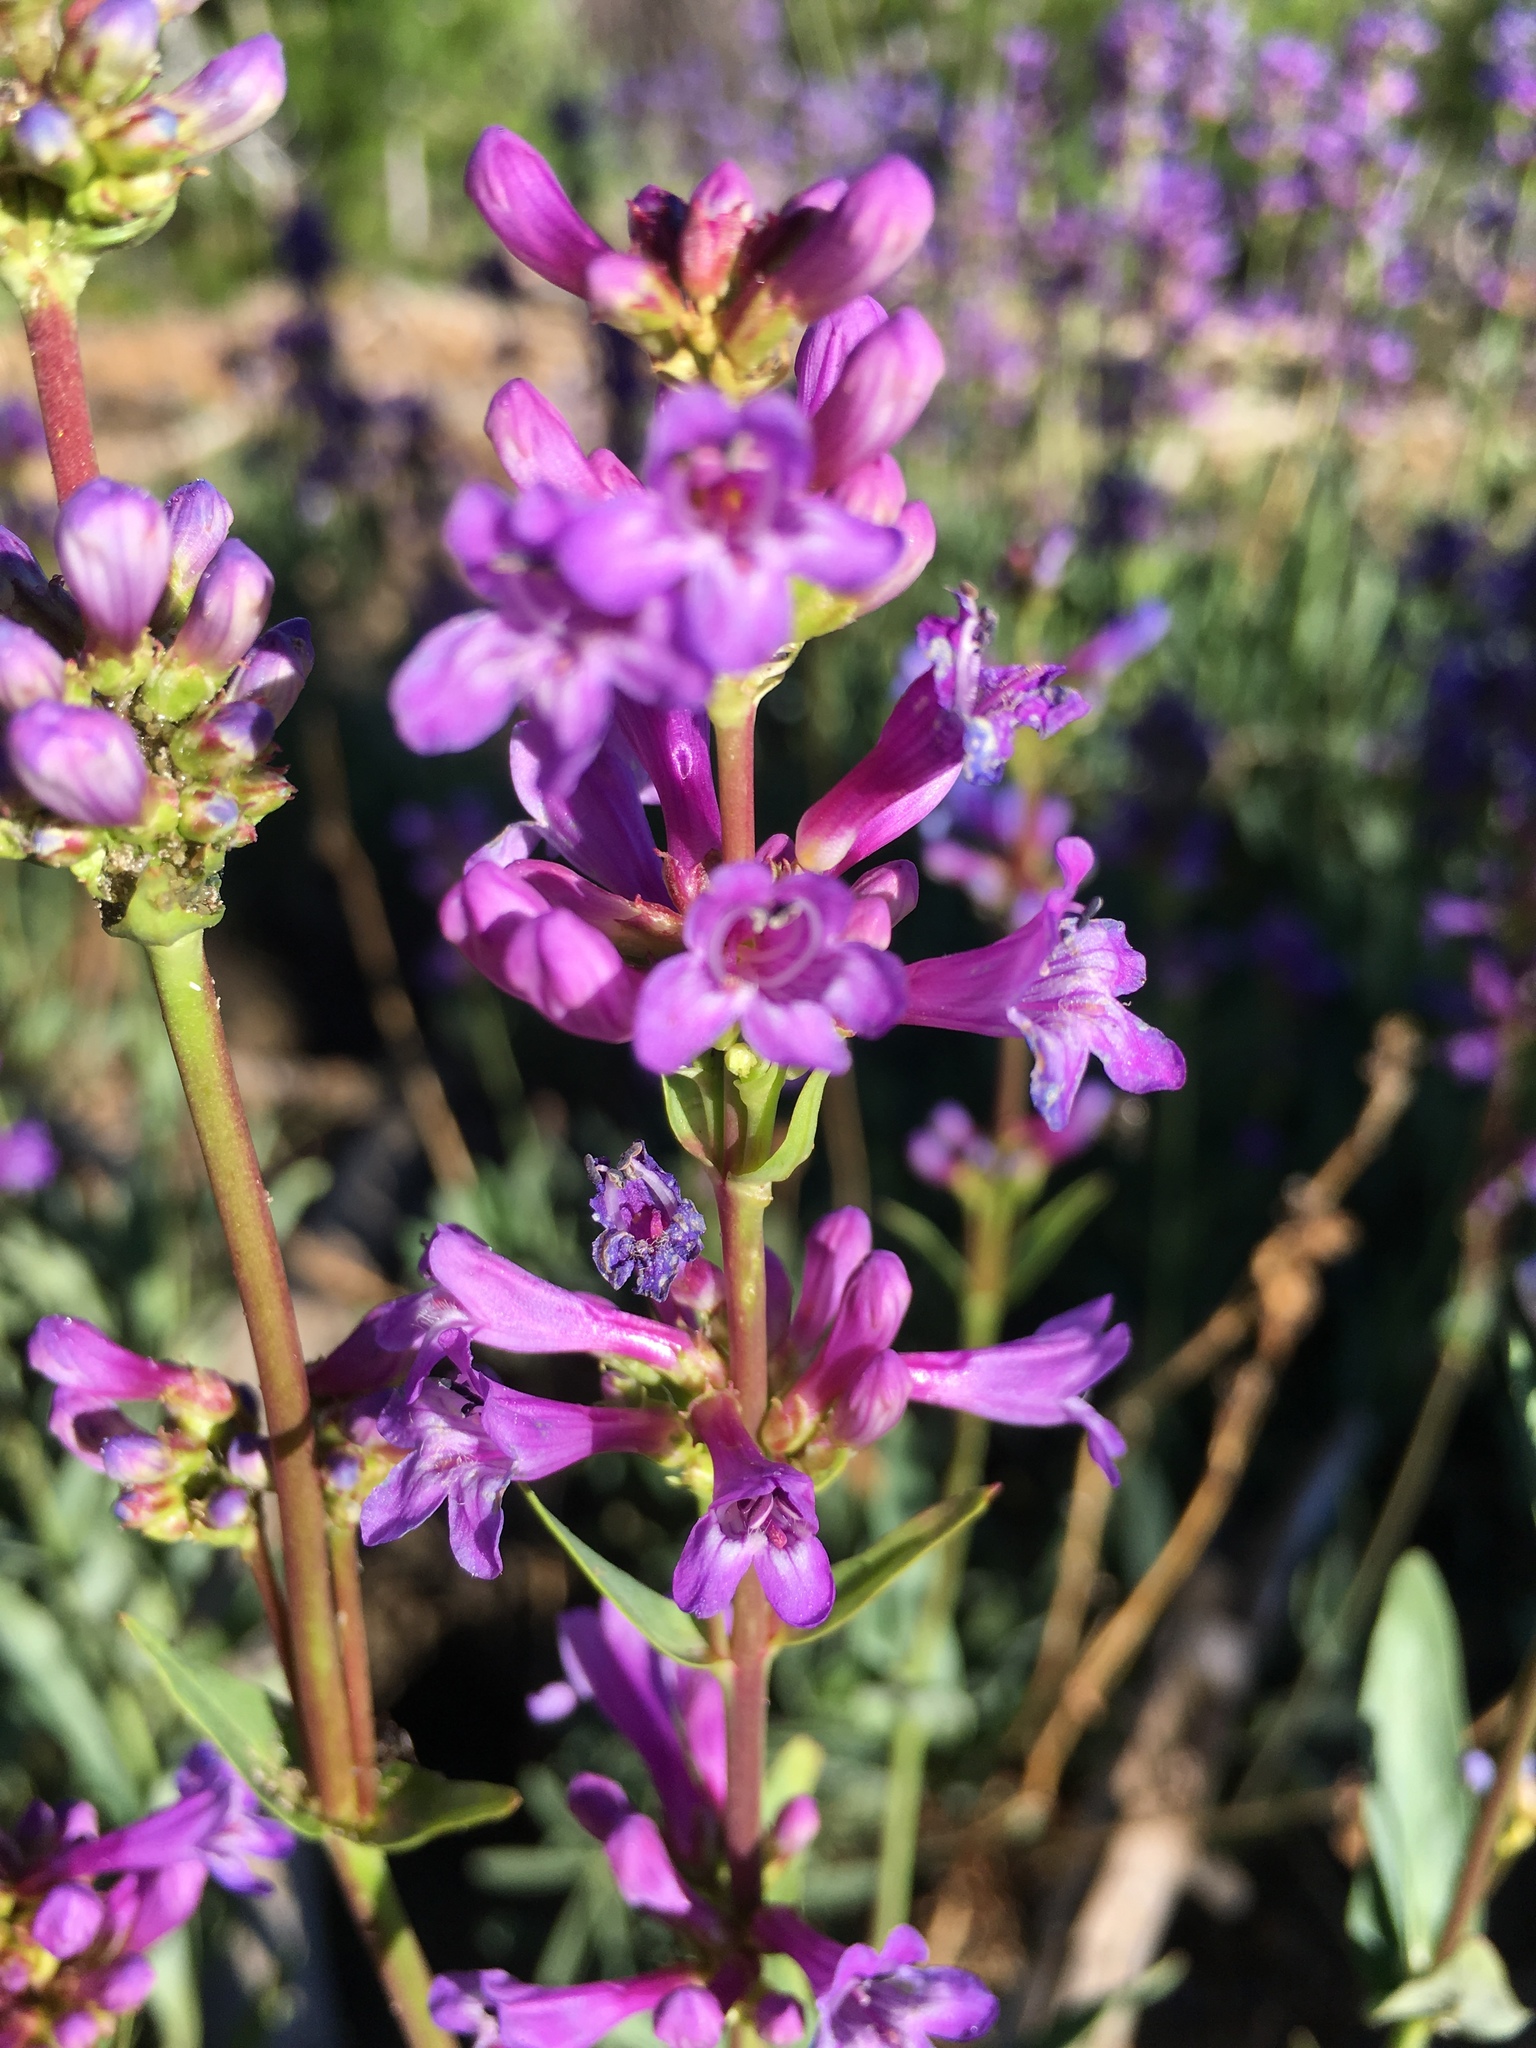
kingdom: Plantae
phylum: Tracheophyta
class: Magnoliopsida
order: Lamiales
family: Plantaginaceae
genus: Penstemon
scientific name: Penstemon euglaucus
